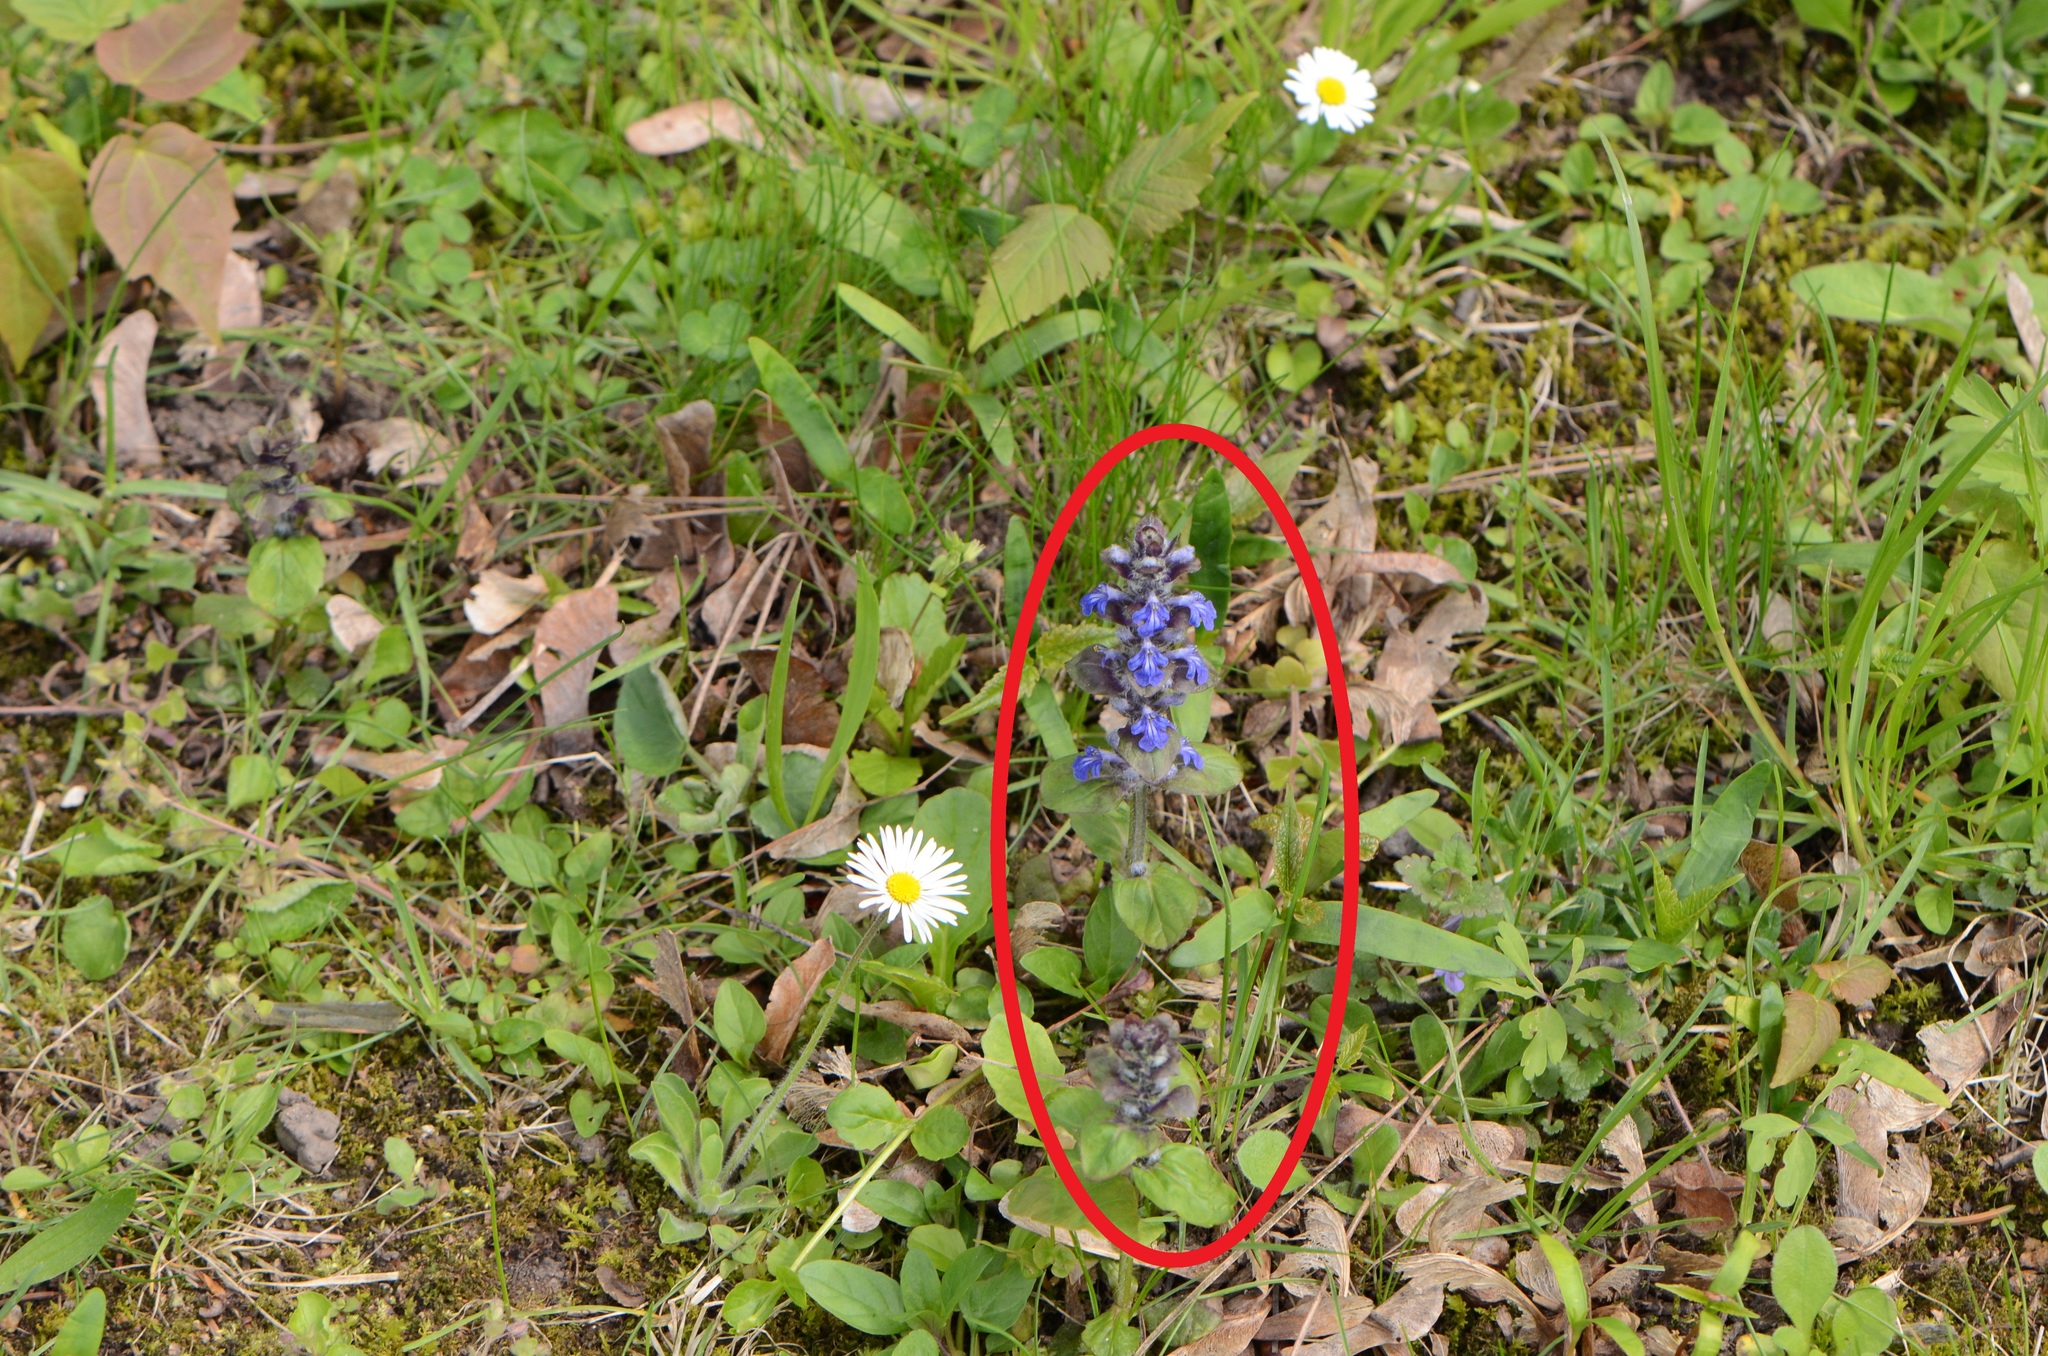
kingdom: Plantae
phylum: Tracheophyta
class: Magnoliopsida
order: Lamiales
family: Lamiaceae
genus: Ajuga
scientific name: Ajuga reptans
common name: Bugle
